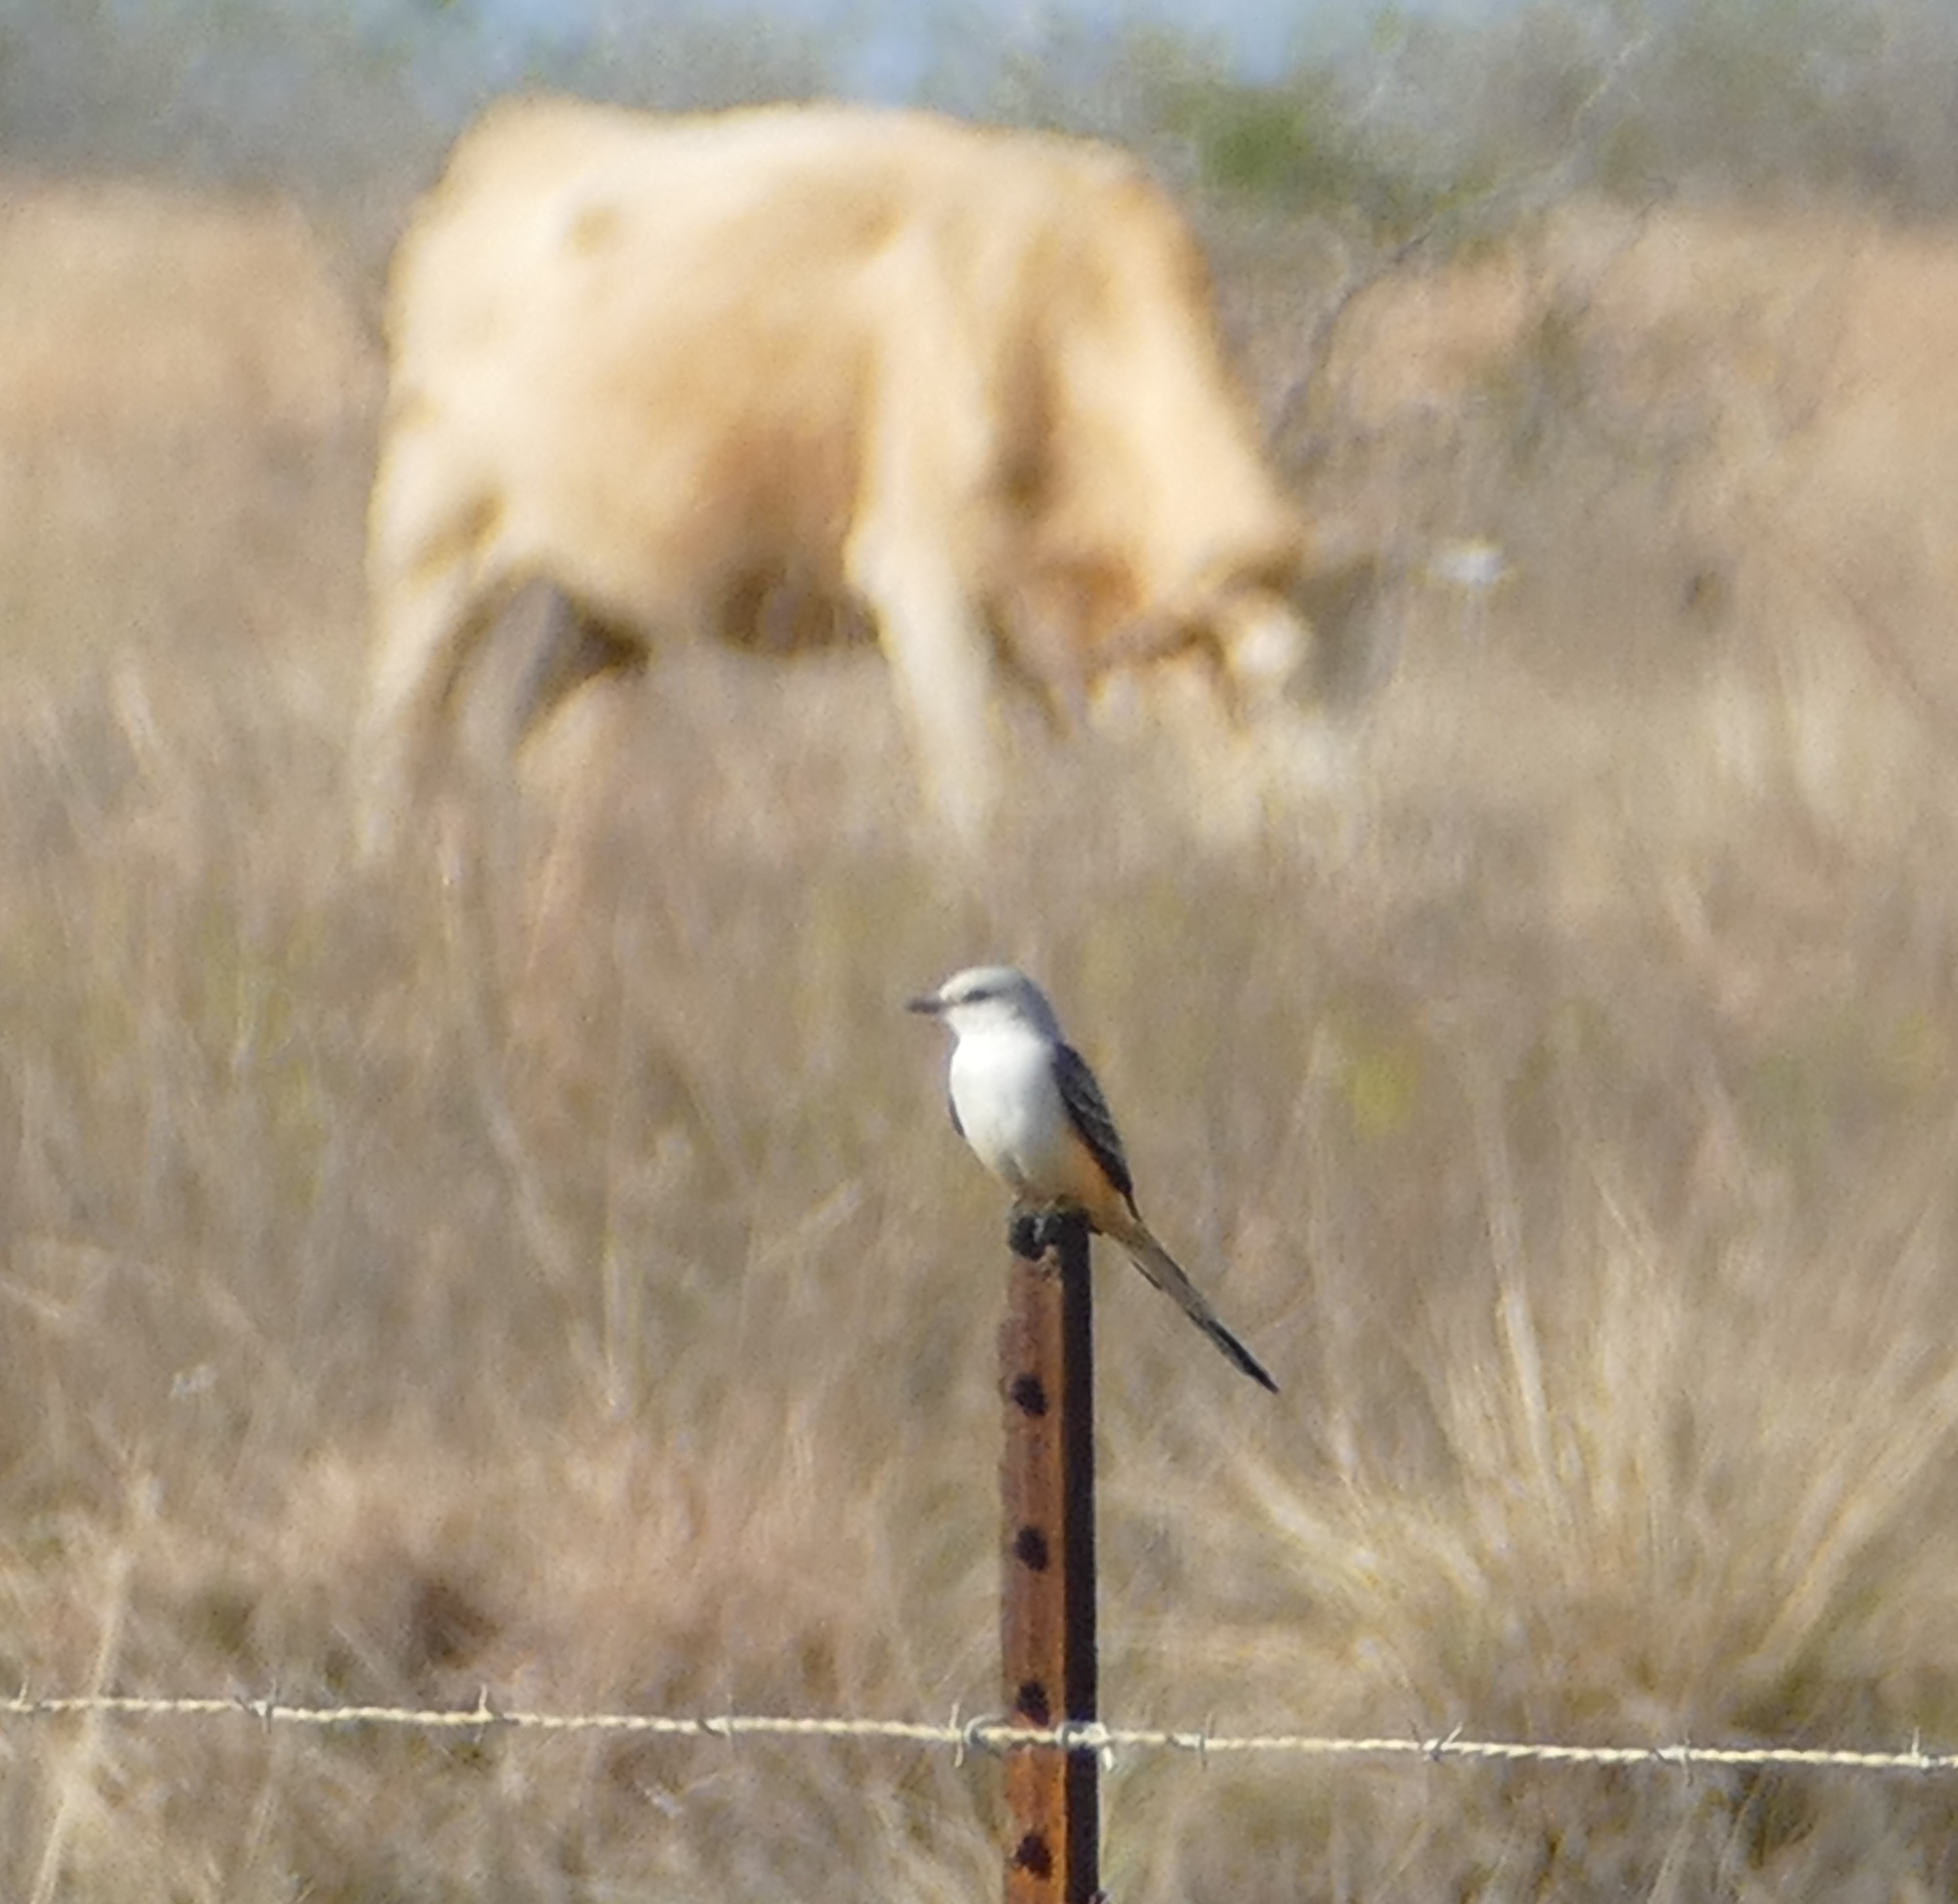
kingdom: Animalia
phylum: Chordata
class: Aves
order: Passeriformes
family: Tyrannidae
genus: Tyrannus
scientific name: Tyrannus forficatus
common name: Scissor-tailed flycatcher
